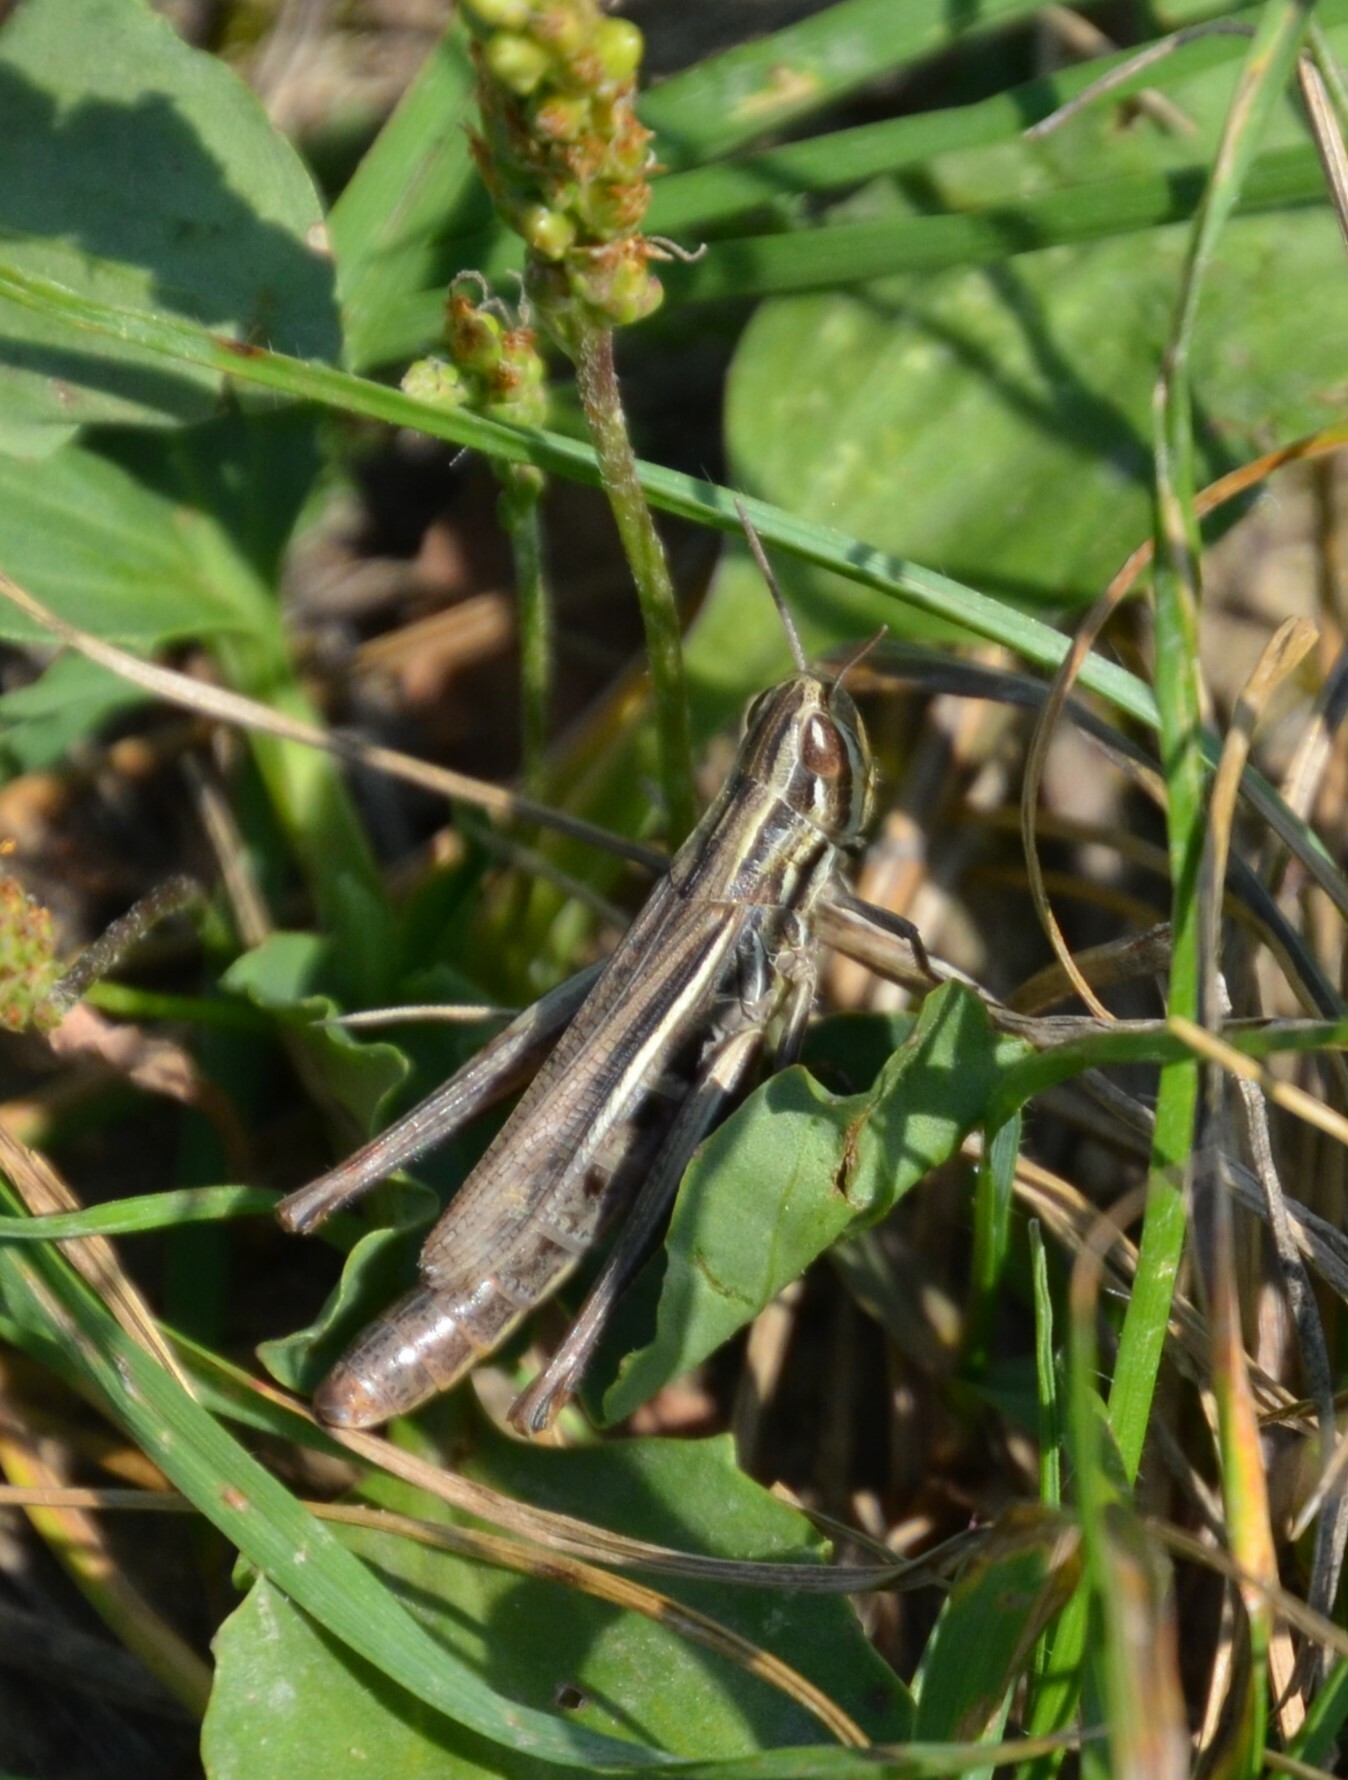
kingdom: Animalia
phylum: Arthropoda
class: Insecta
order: Orthoptera
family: Acrididae
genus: Euchorthippus
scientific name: Euchorthippus declivus
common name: Common straw grasshopper
